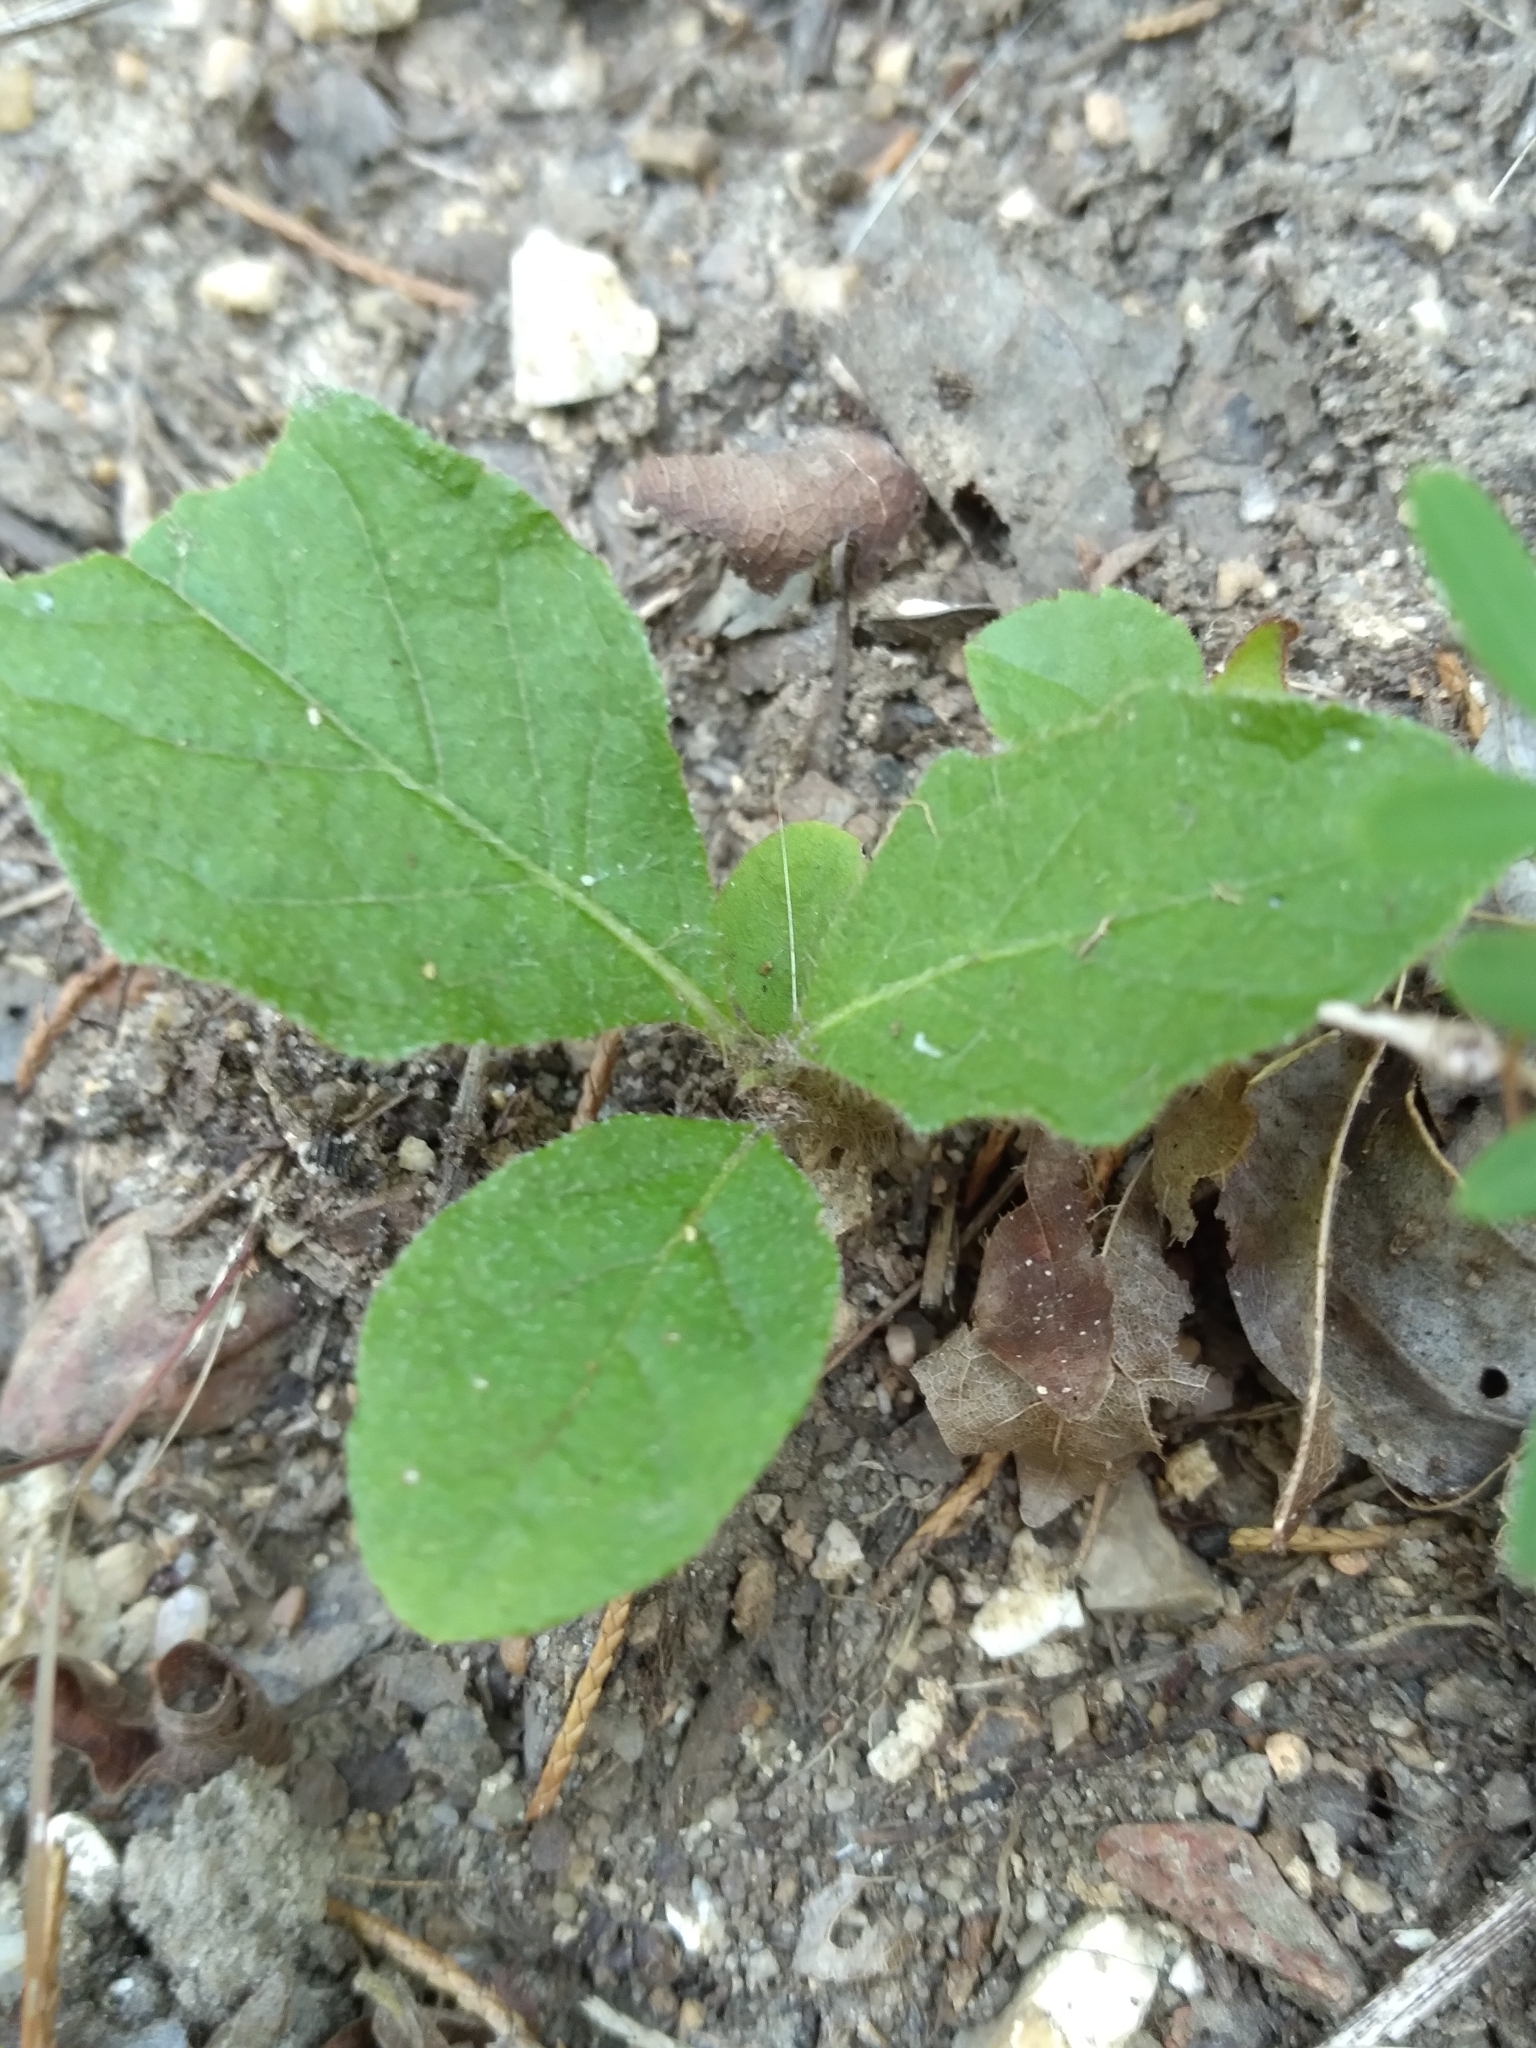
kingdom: Plantae
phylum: Tracheophyta
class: Magnoliopsida
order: Solanales
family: Solanaceae
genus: Solanum
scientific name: Solanum pumilum
